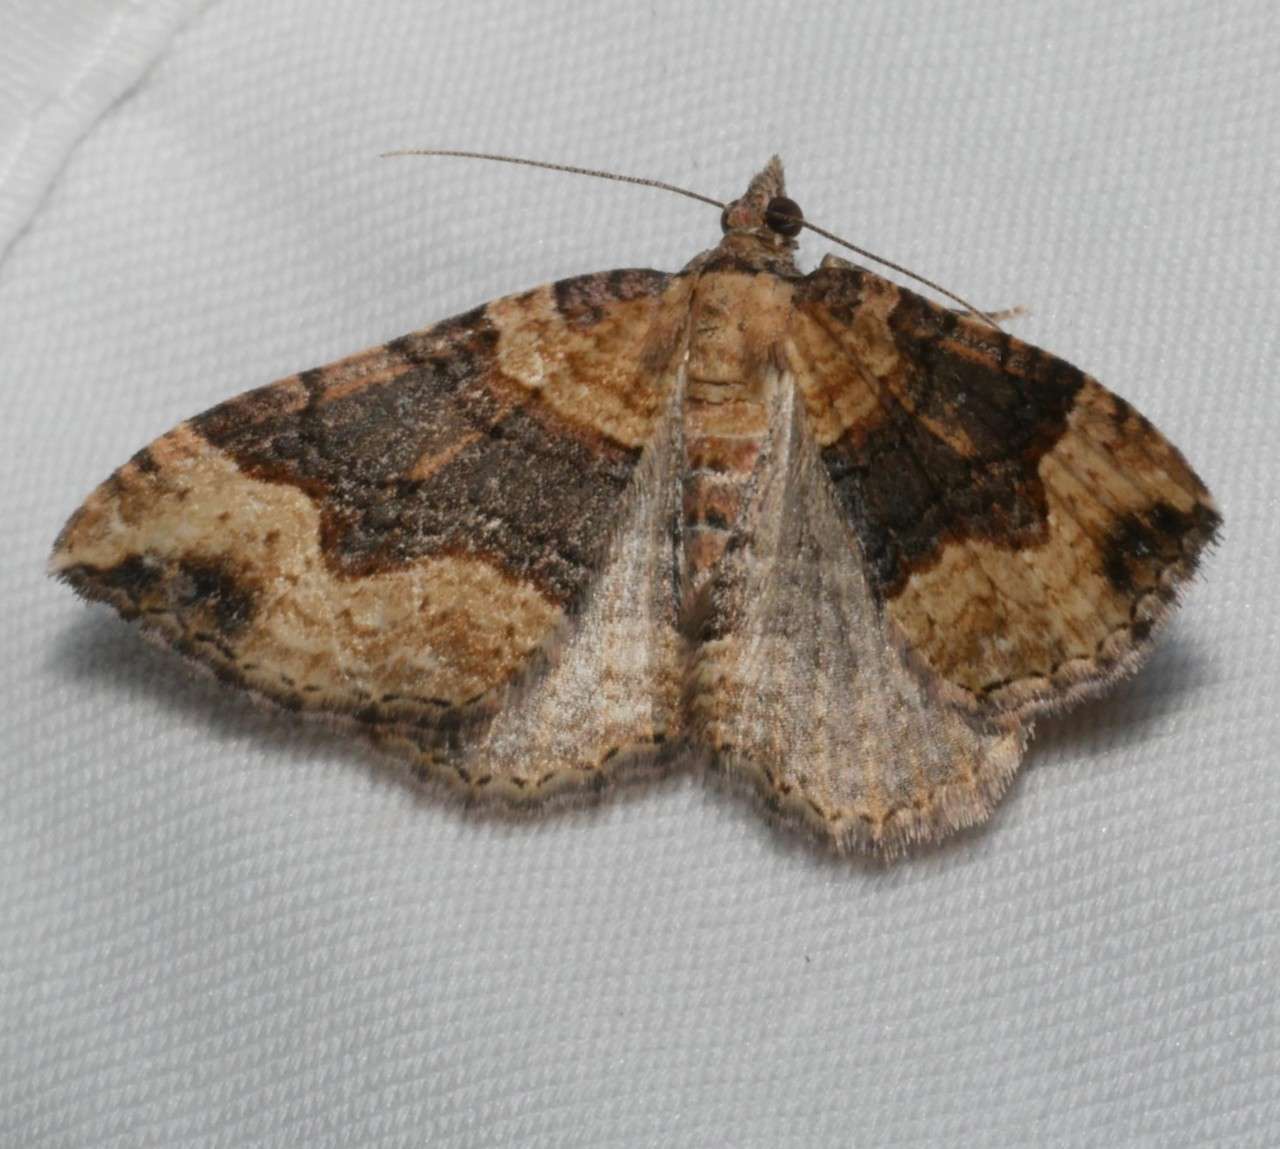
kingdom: Animalia
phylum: Arthropoda
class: Insecta
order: Lepidoptera
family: Geometridae
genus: Epyaxa
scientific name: Epyaxa subidaria
